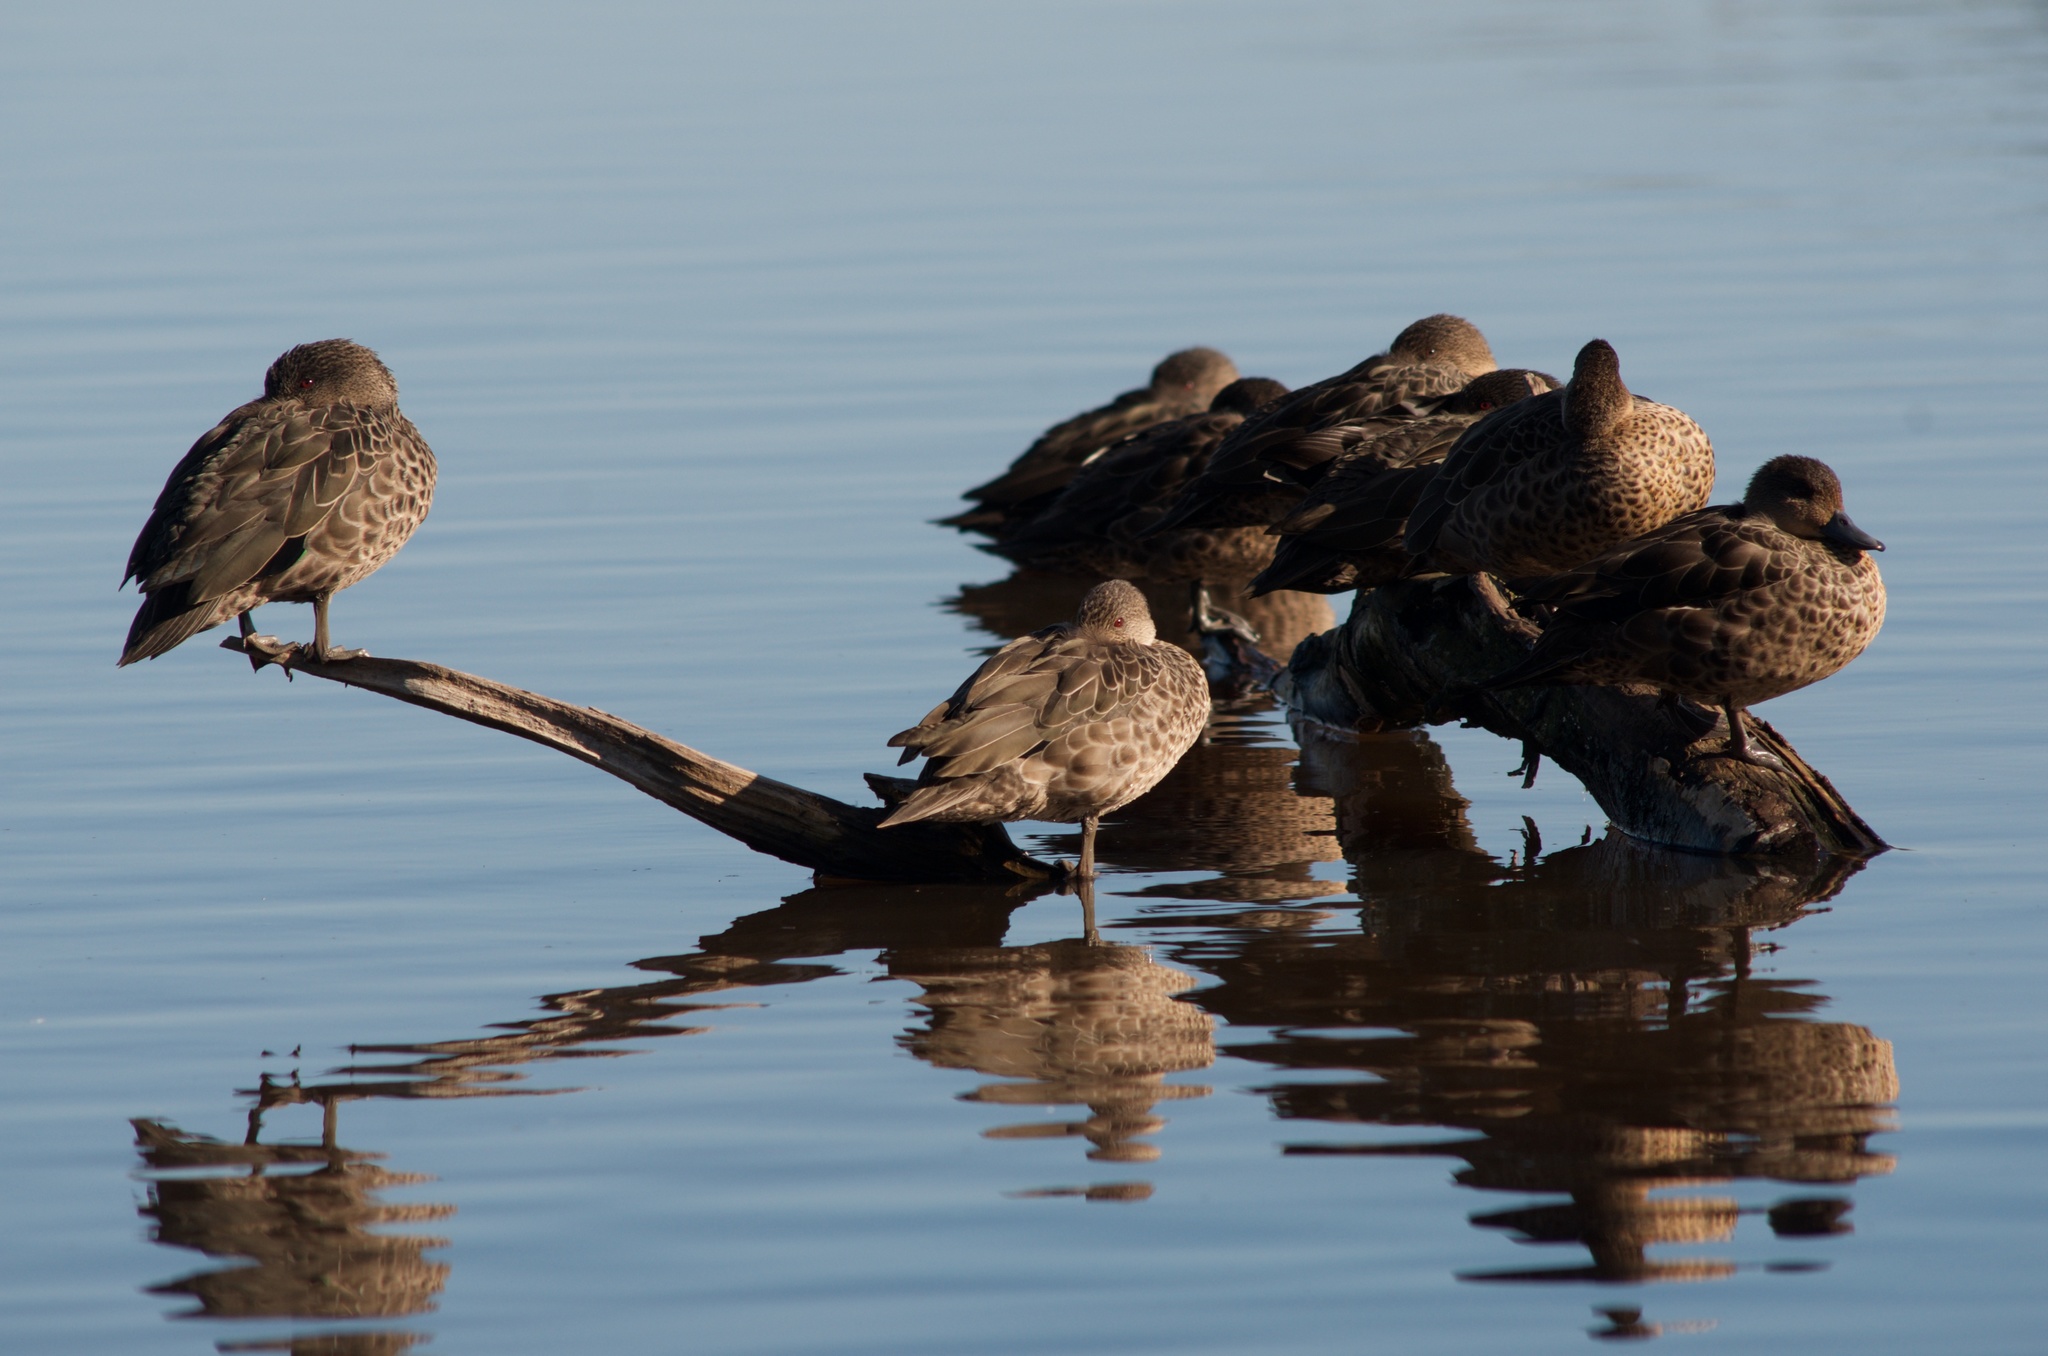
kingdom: Animalia
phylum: Chordata
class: Aves
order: Anseriformes
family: Anatidae
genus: Anas
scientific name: Anas gracilis
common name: Grey teal
